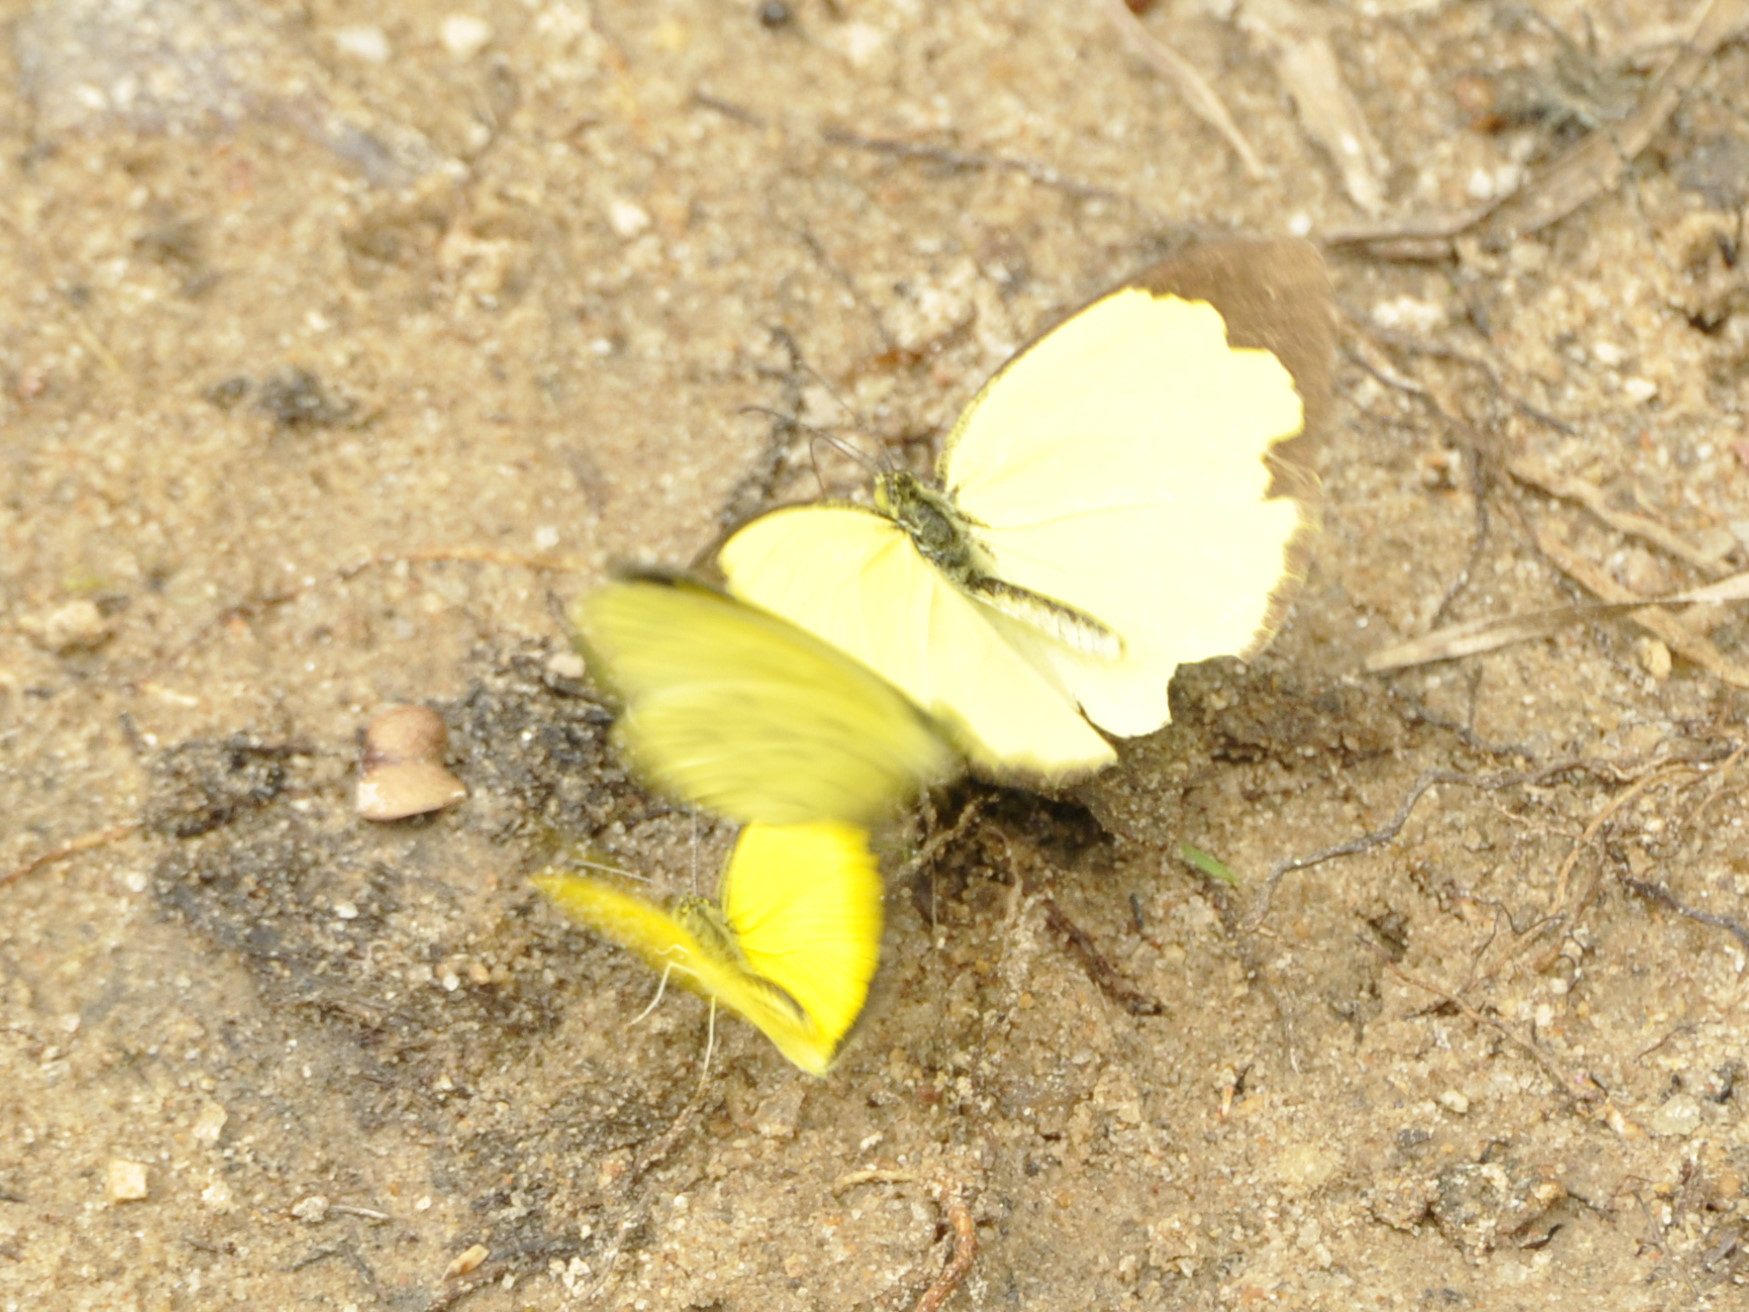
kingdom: Animalia
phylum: Arthropoda
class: Insecta
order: Lepidoptera
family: Pieridae
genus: Eurema
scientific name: Eurema hecabe
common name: Pale grass yellow
